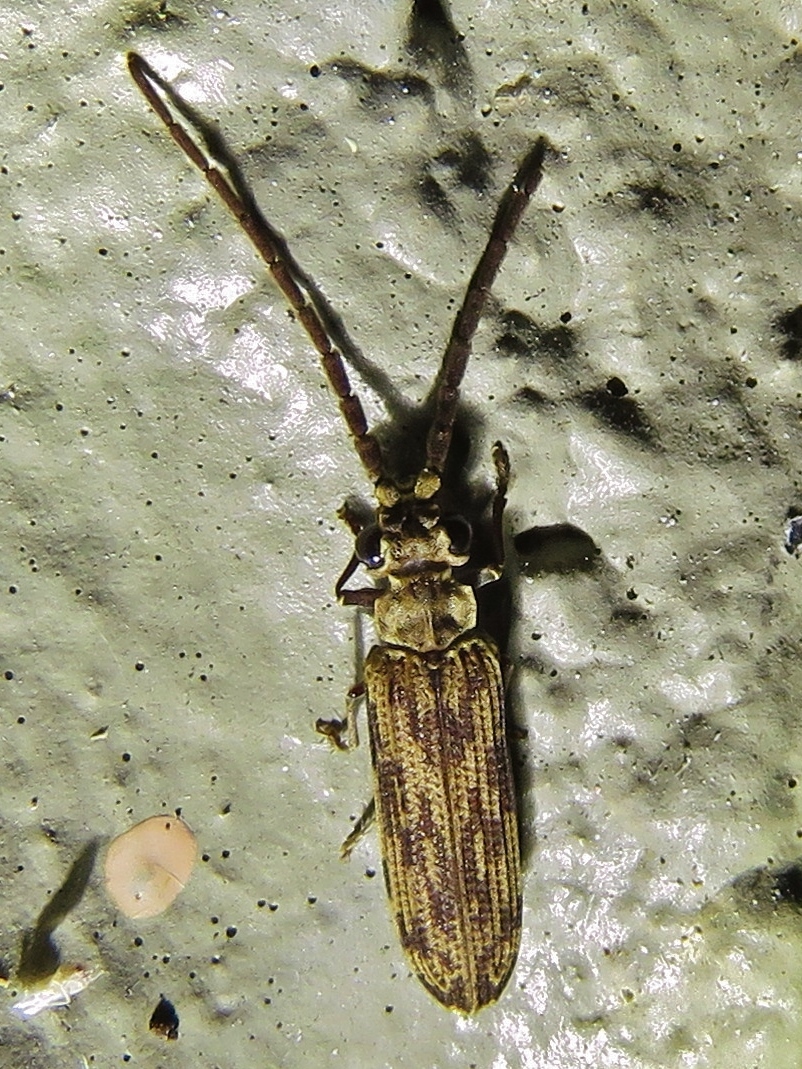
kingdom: Animalia
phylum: Arthropoda
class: Insecta
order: Coleoptera
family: Cupedidae
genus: Tenomerga
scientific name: Tenomerga cinerea
